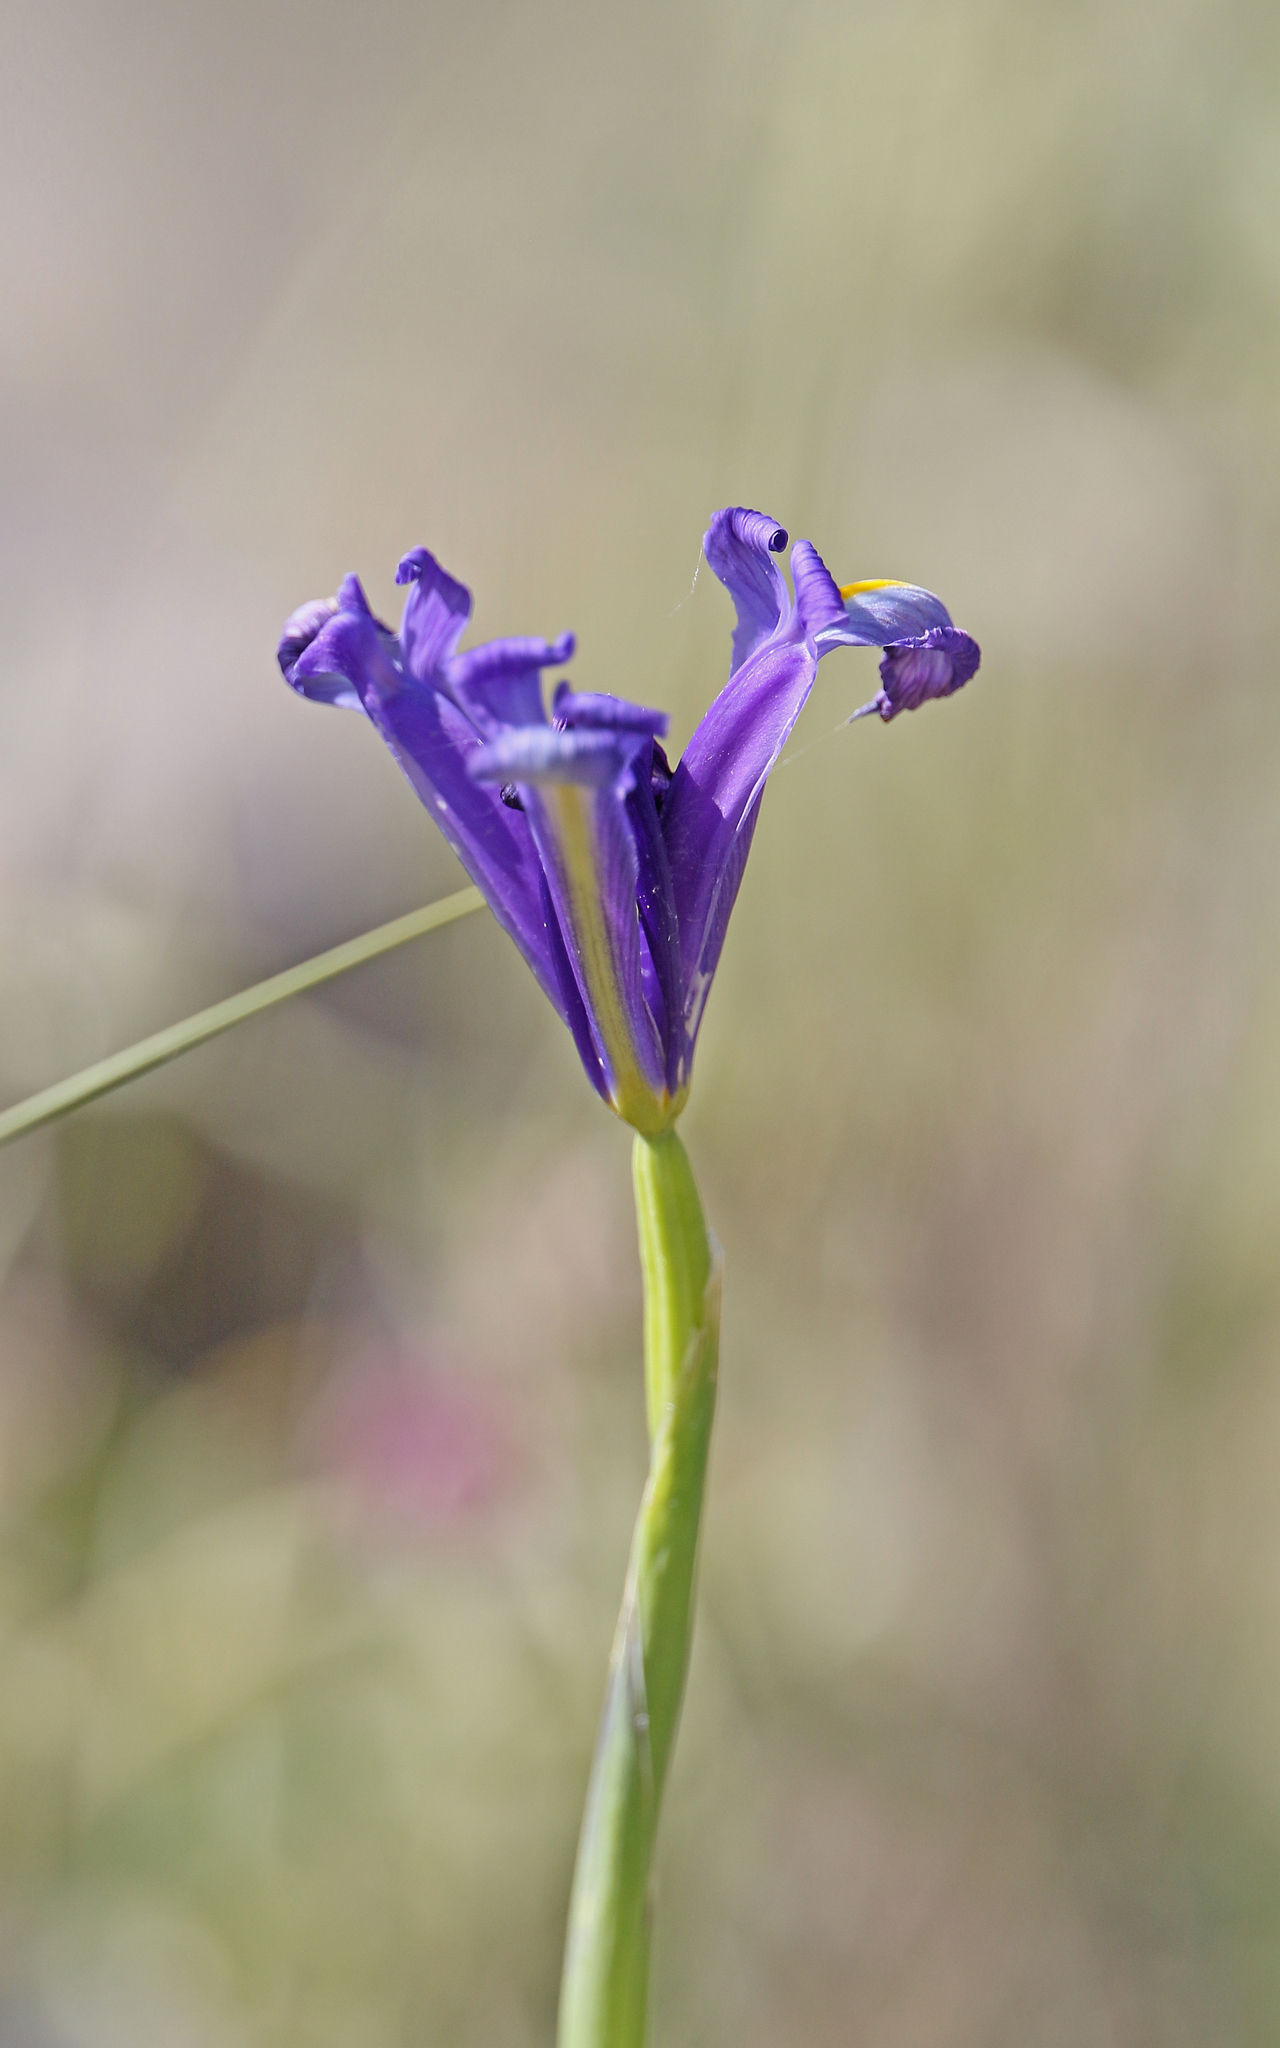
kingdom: Plantae
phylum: Tracheophyta
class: Liliopsida
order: Asparagales
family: Iridaceae
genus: Iris
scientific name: Iris xiphium
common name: Spanish iris
